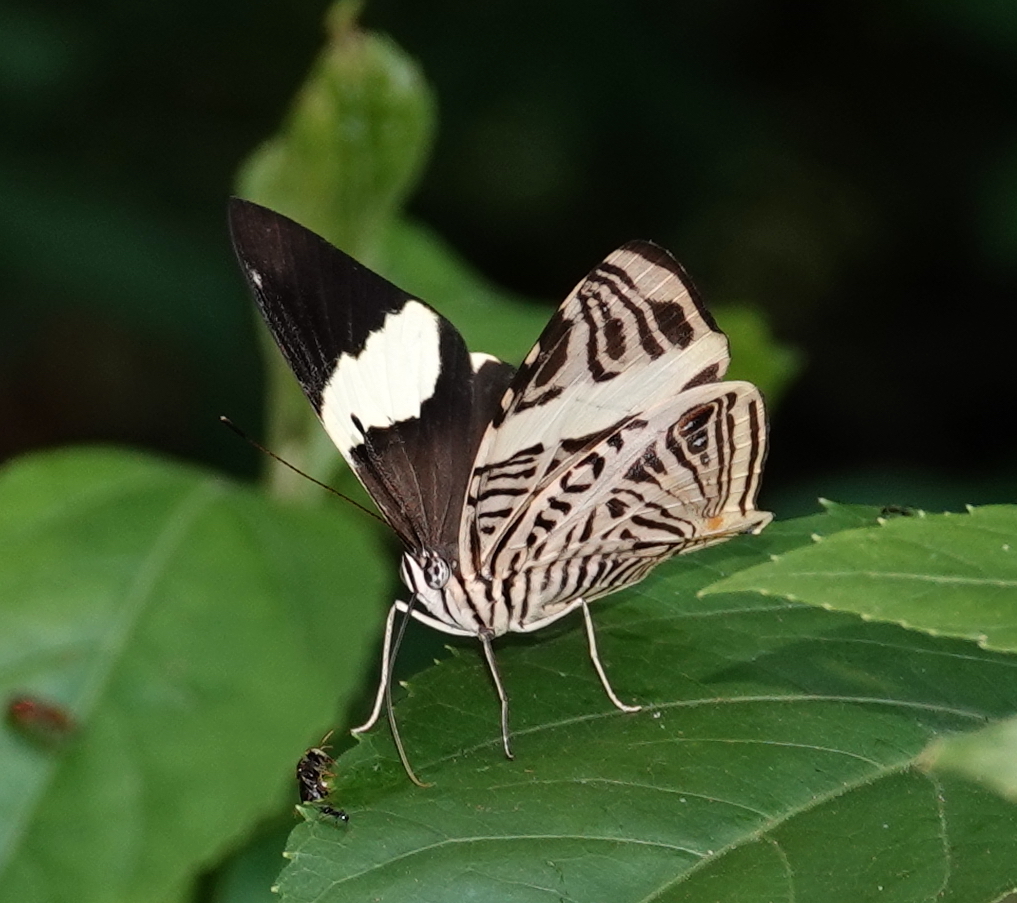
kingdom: Animalia
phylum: Arthropoda
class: Insecta
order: Lepidoptera
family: Nymphalidae
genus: Colobura
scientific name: Colobura dirce
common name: Dirce beauty
